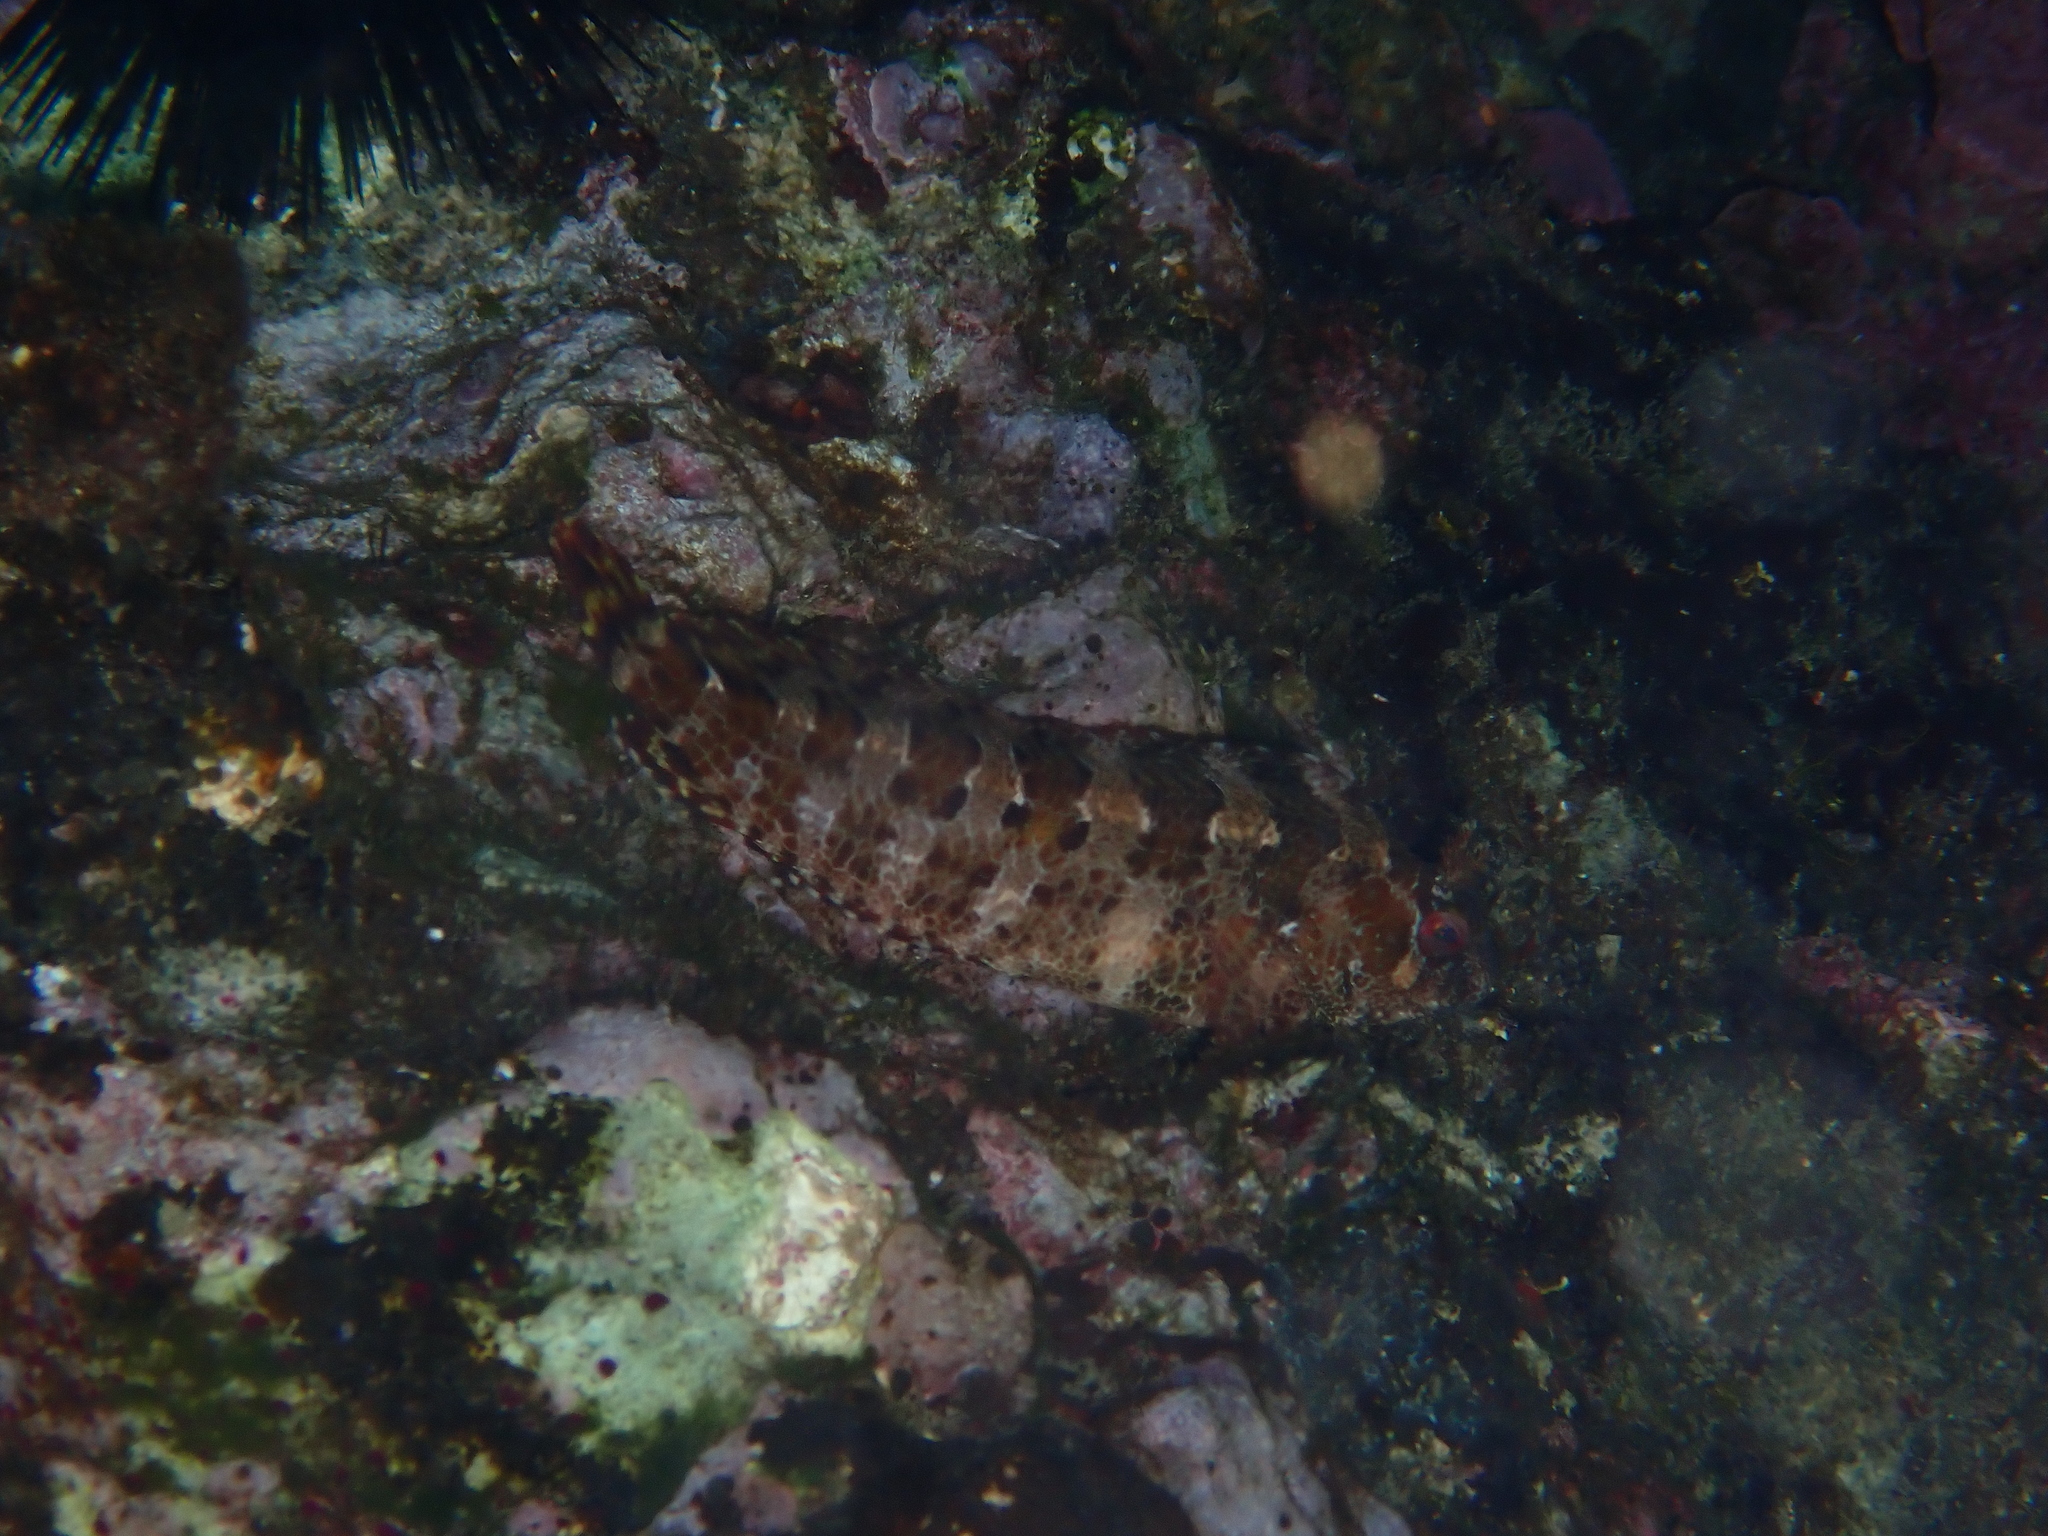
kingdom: Animalia
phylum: Chordata
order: Perciformes
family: Blenniidae
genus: Parablennius
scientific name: Parablennius gattorugine
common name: Tompot blenny
